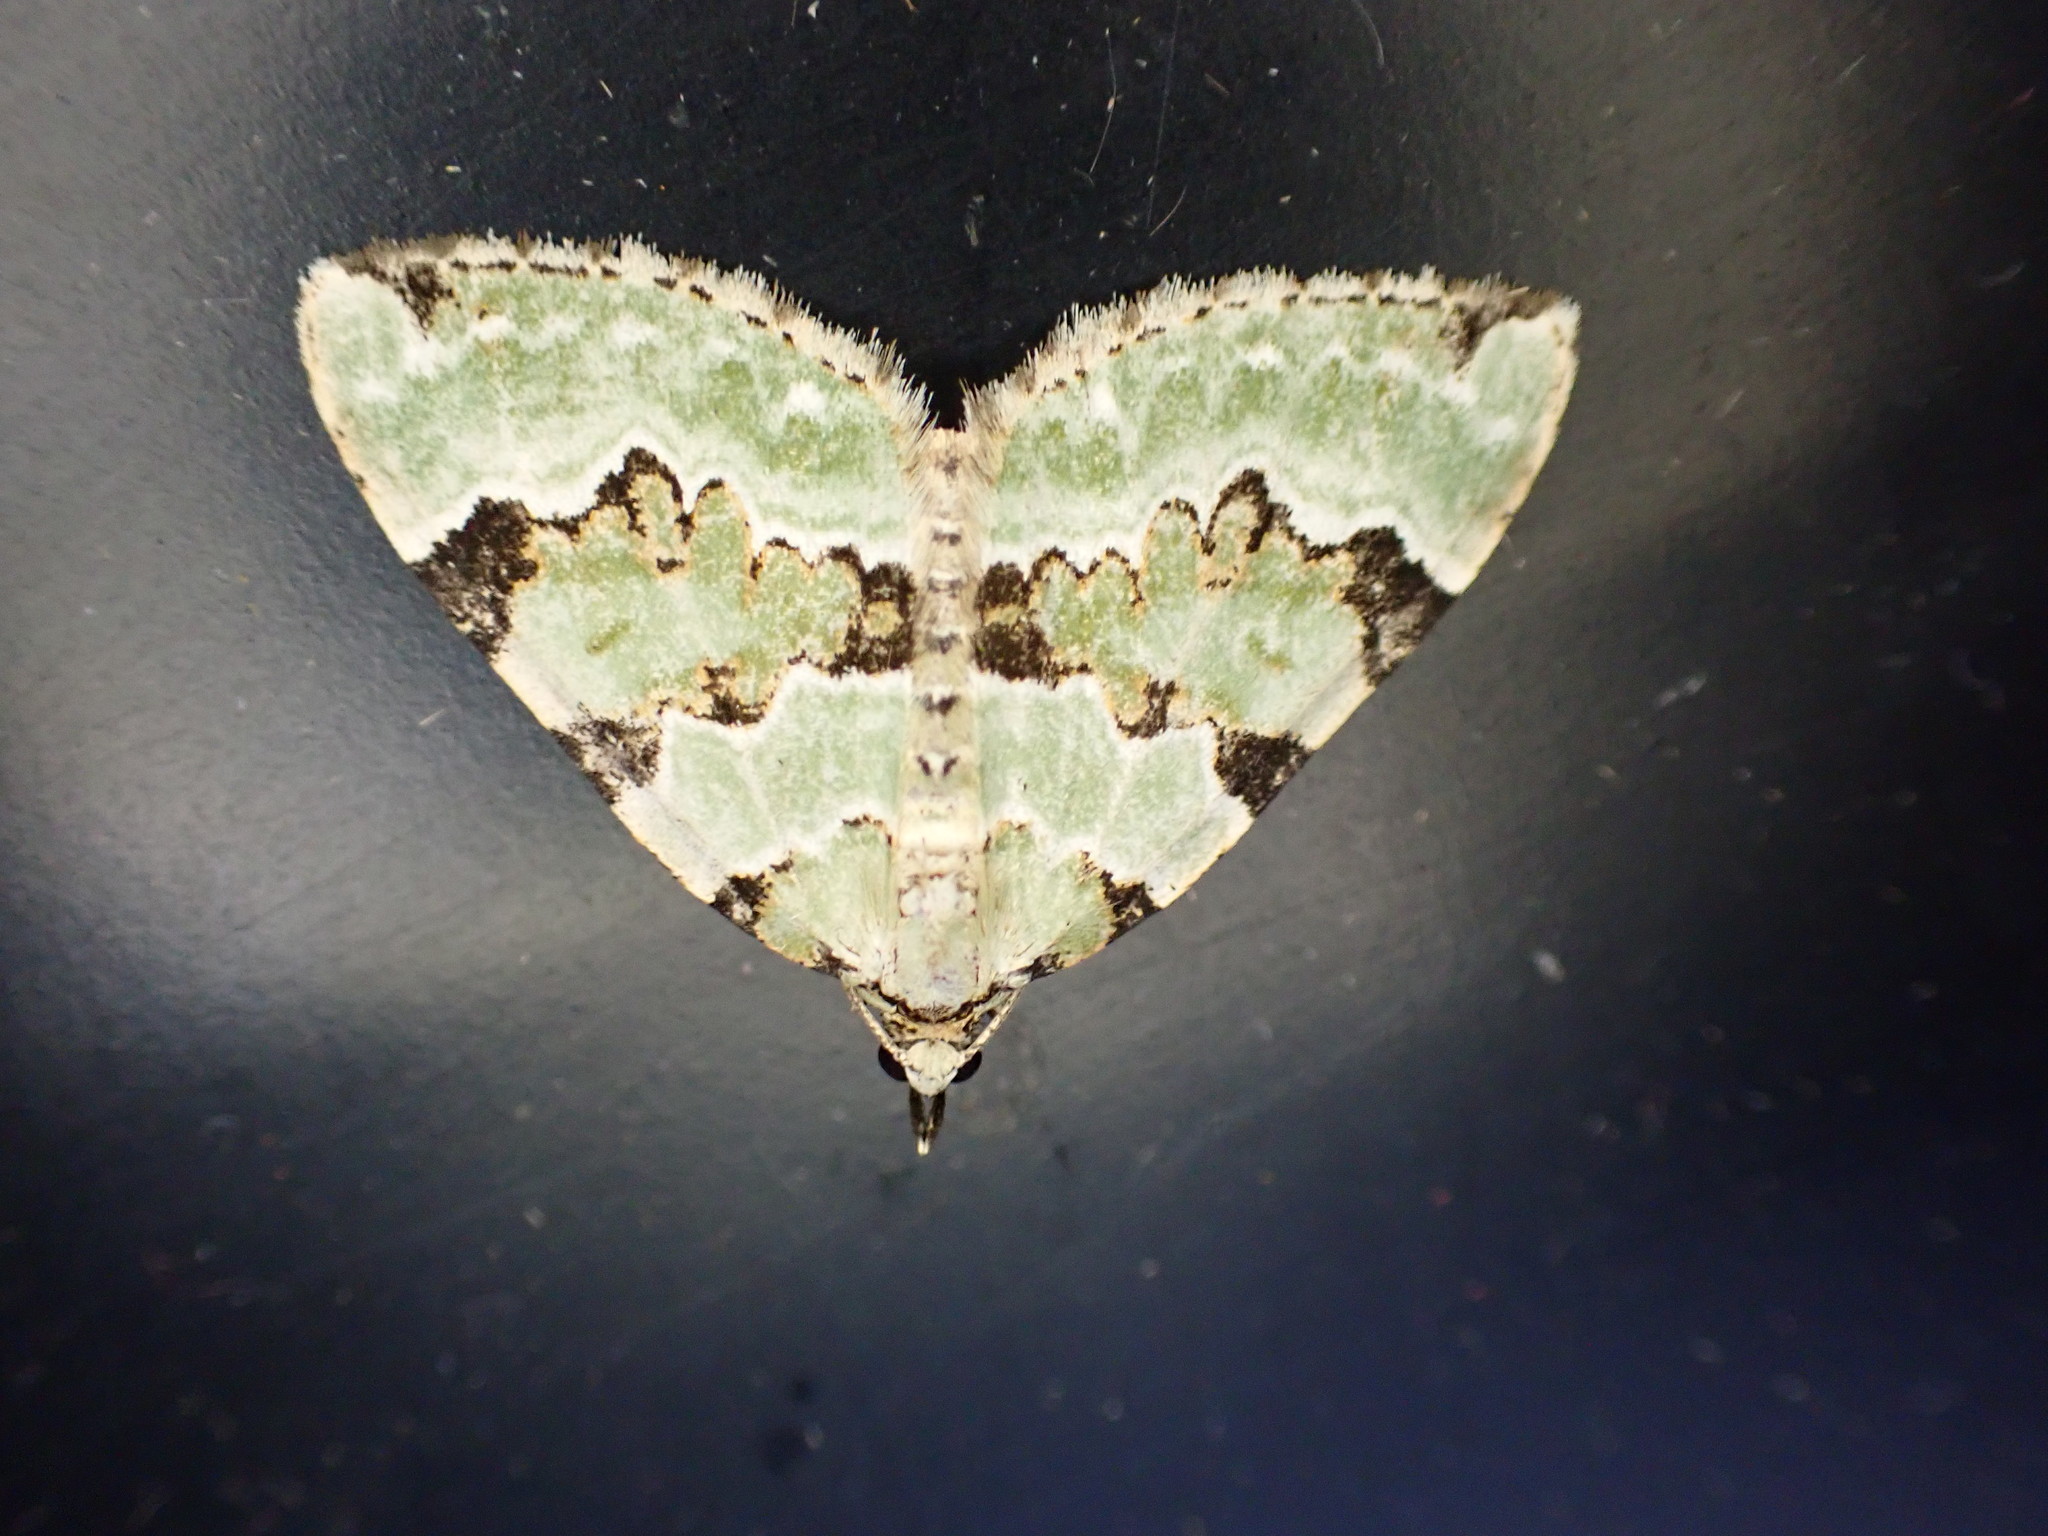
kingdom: Animalia
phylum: Arthropoda
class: Insecta
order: Lepidoptera
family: Geometridae
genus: Colostygia
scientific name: Colostygia pectinataria
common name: Green carpet
